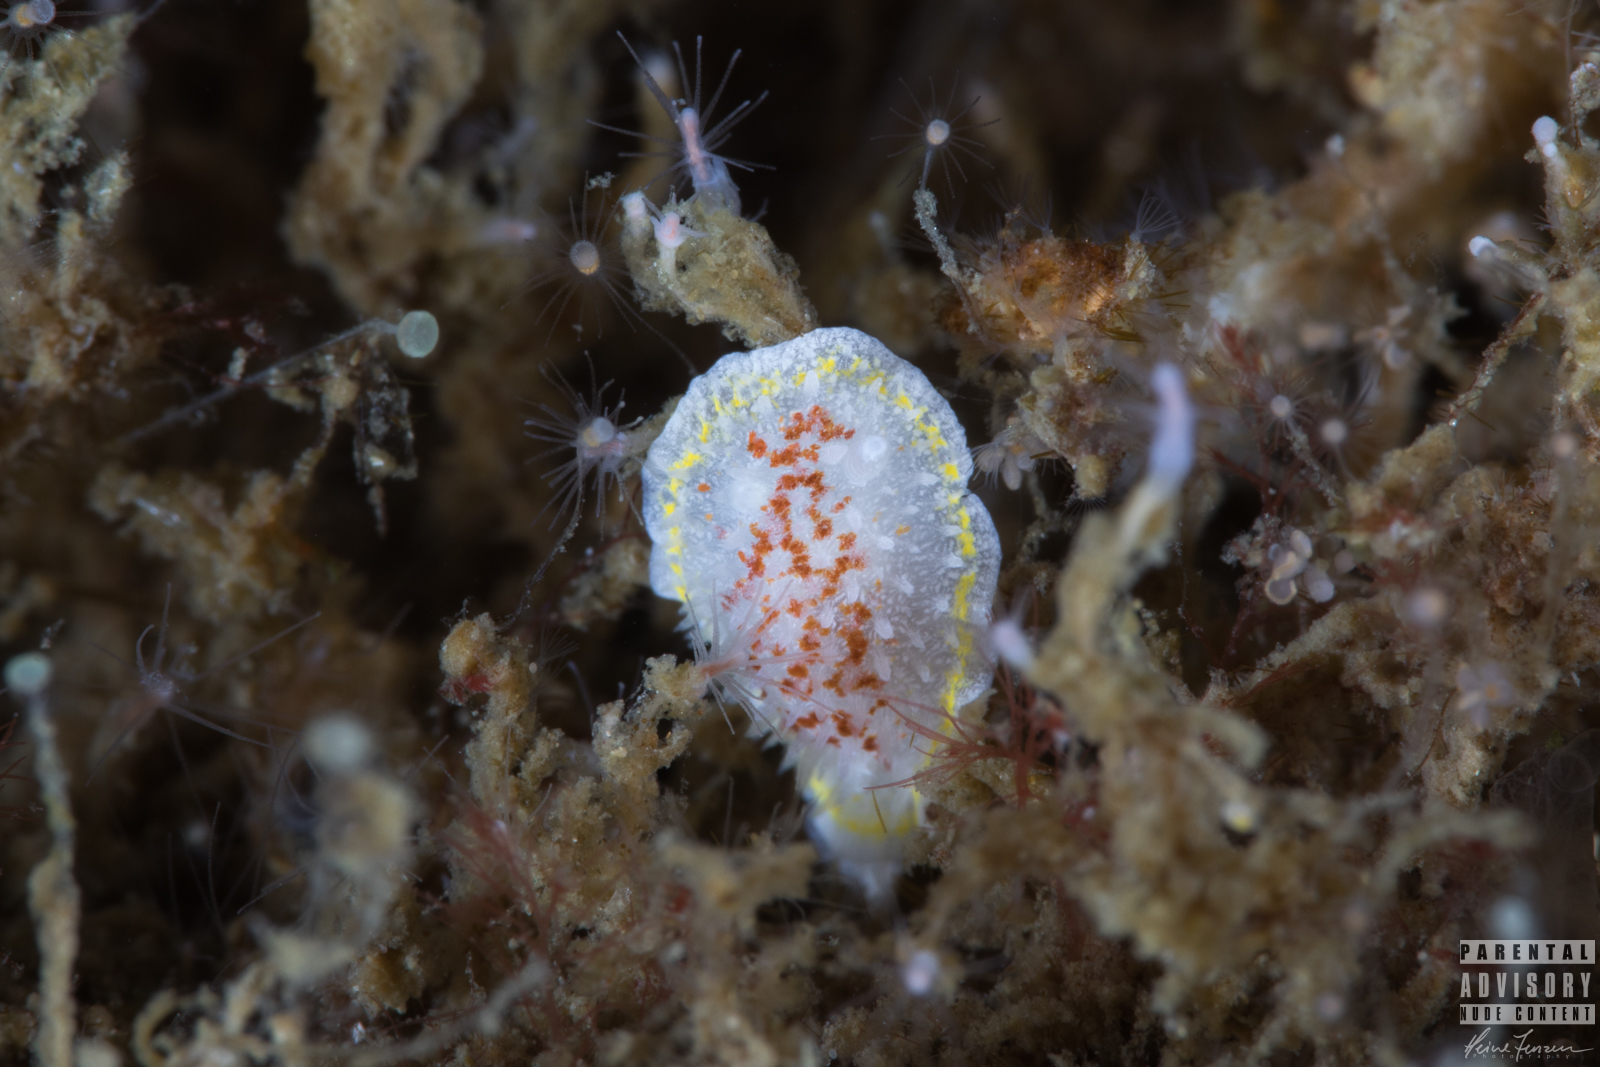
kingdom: Animalia
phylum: Mollusca
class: Gastropoda
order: Nudibranchia
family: Calycidorididae
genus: Diaphorodoris
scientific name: Diaphorodoris luteocincta
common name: Fried egg nudibranch
